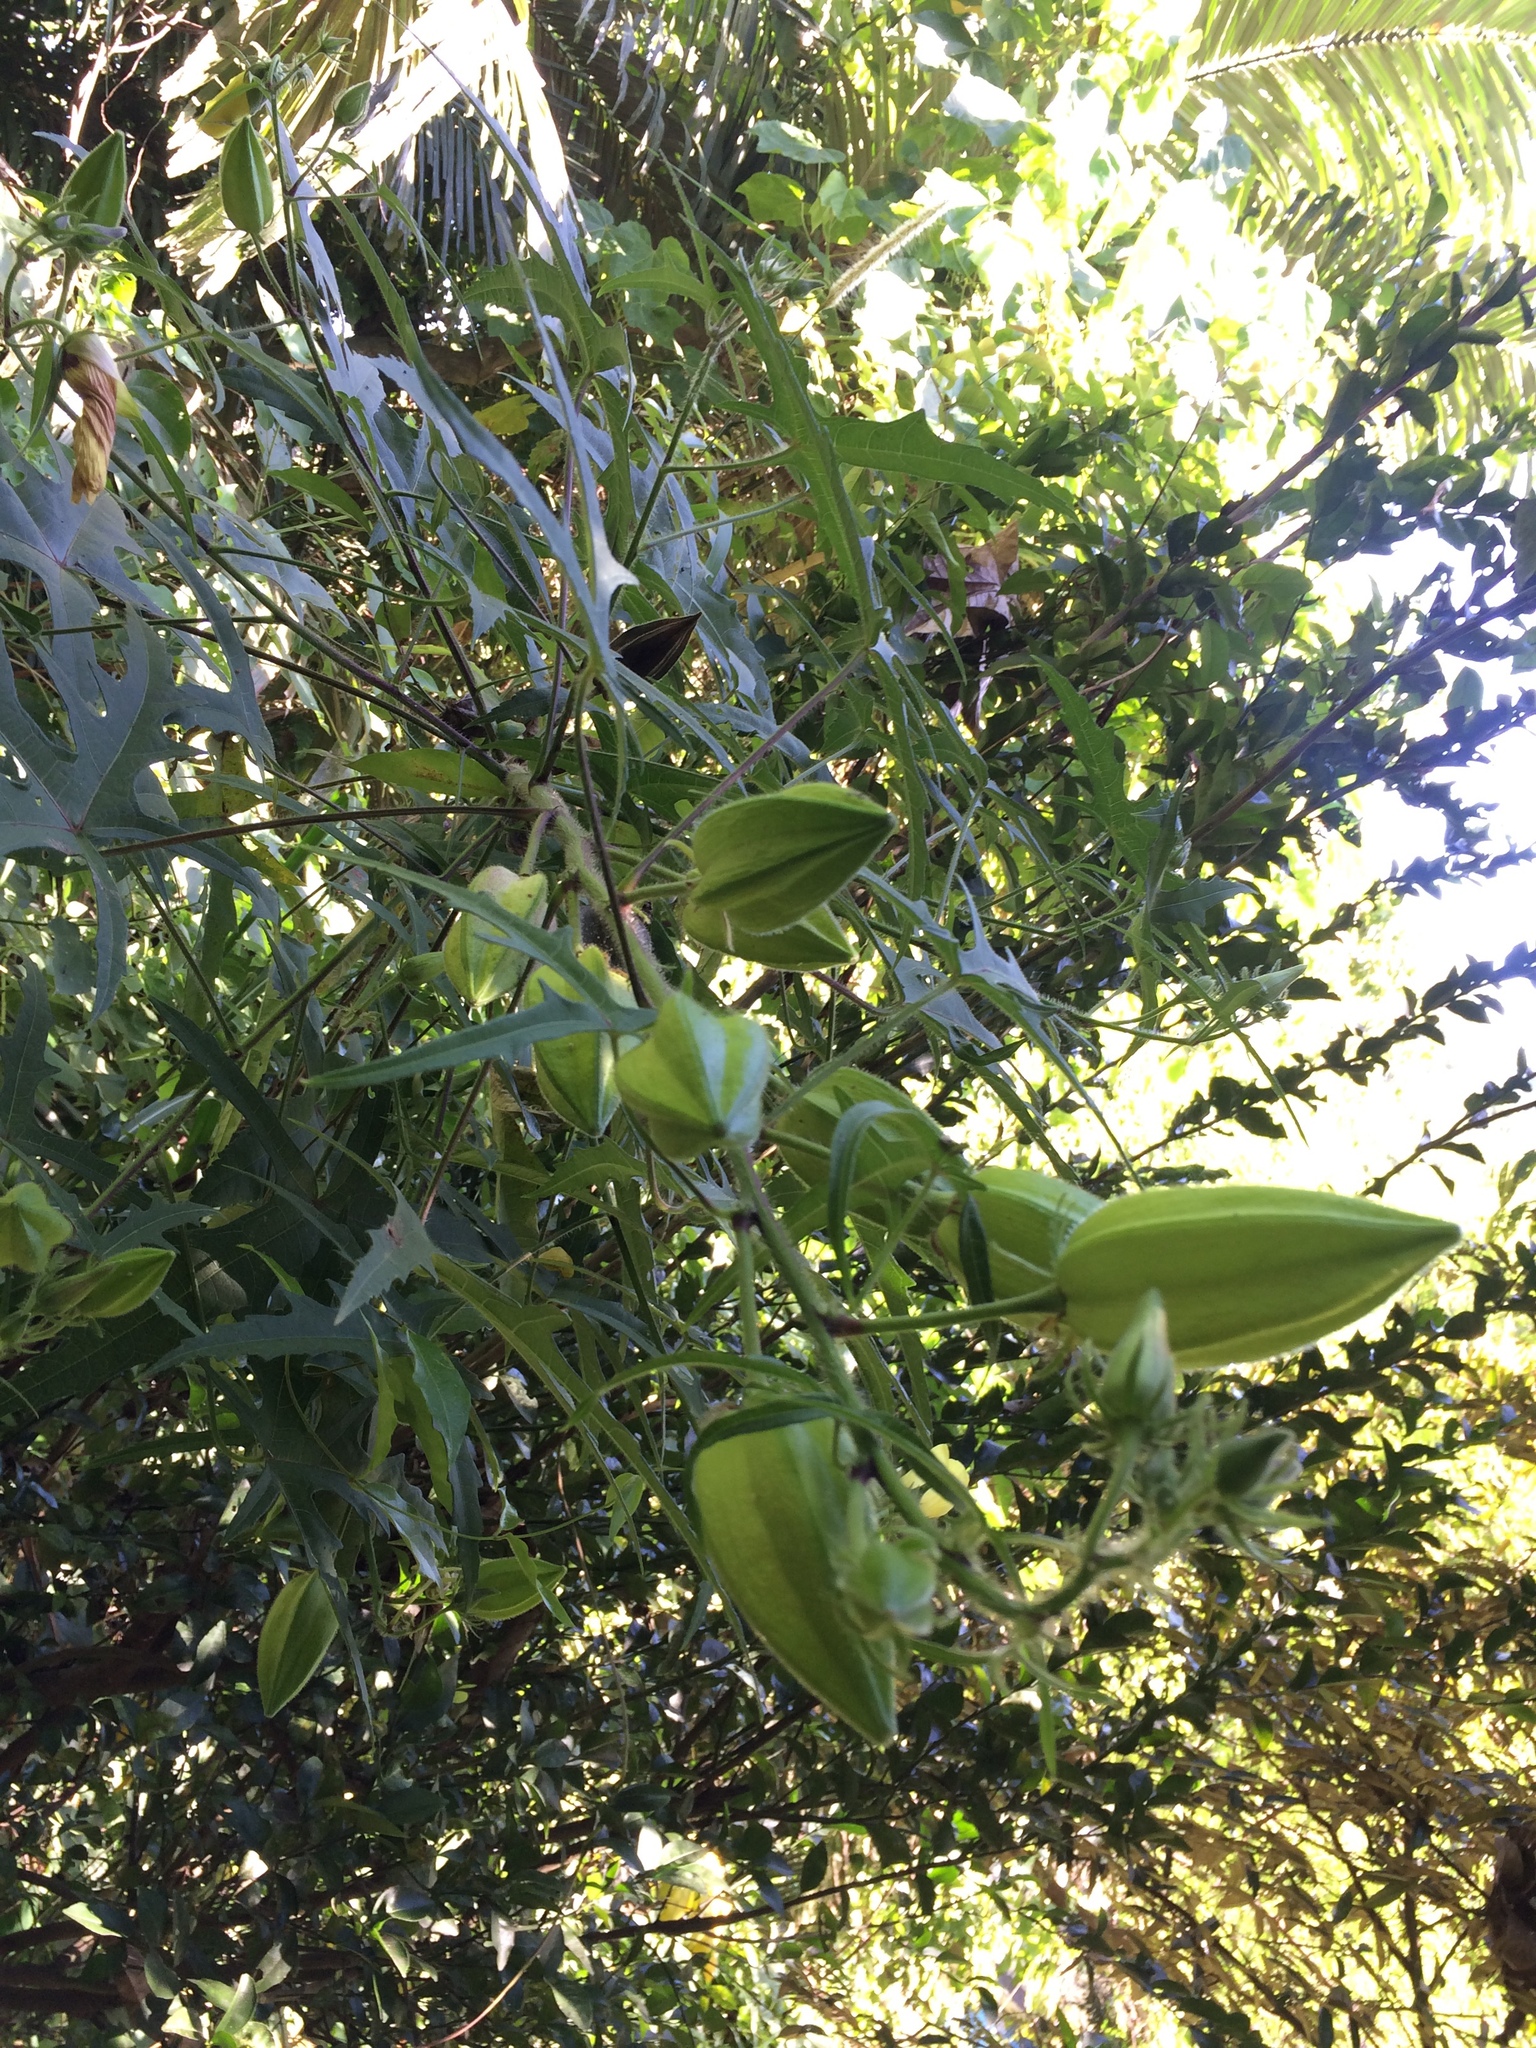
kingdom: Plantae
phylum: Tracheophyta
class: Magnoliopsida
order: Malvales
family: Malvaceae
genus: Abelmoschus
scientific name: Abelmoschus moschatus
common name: Musk okra
